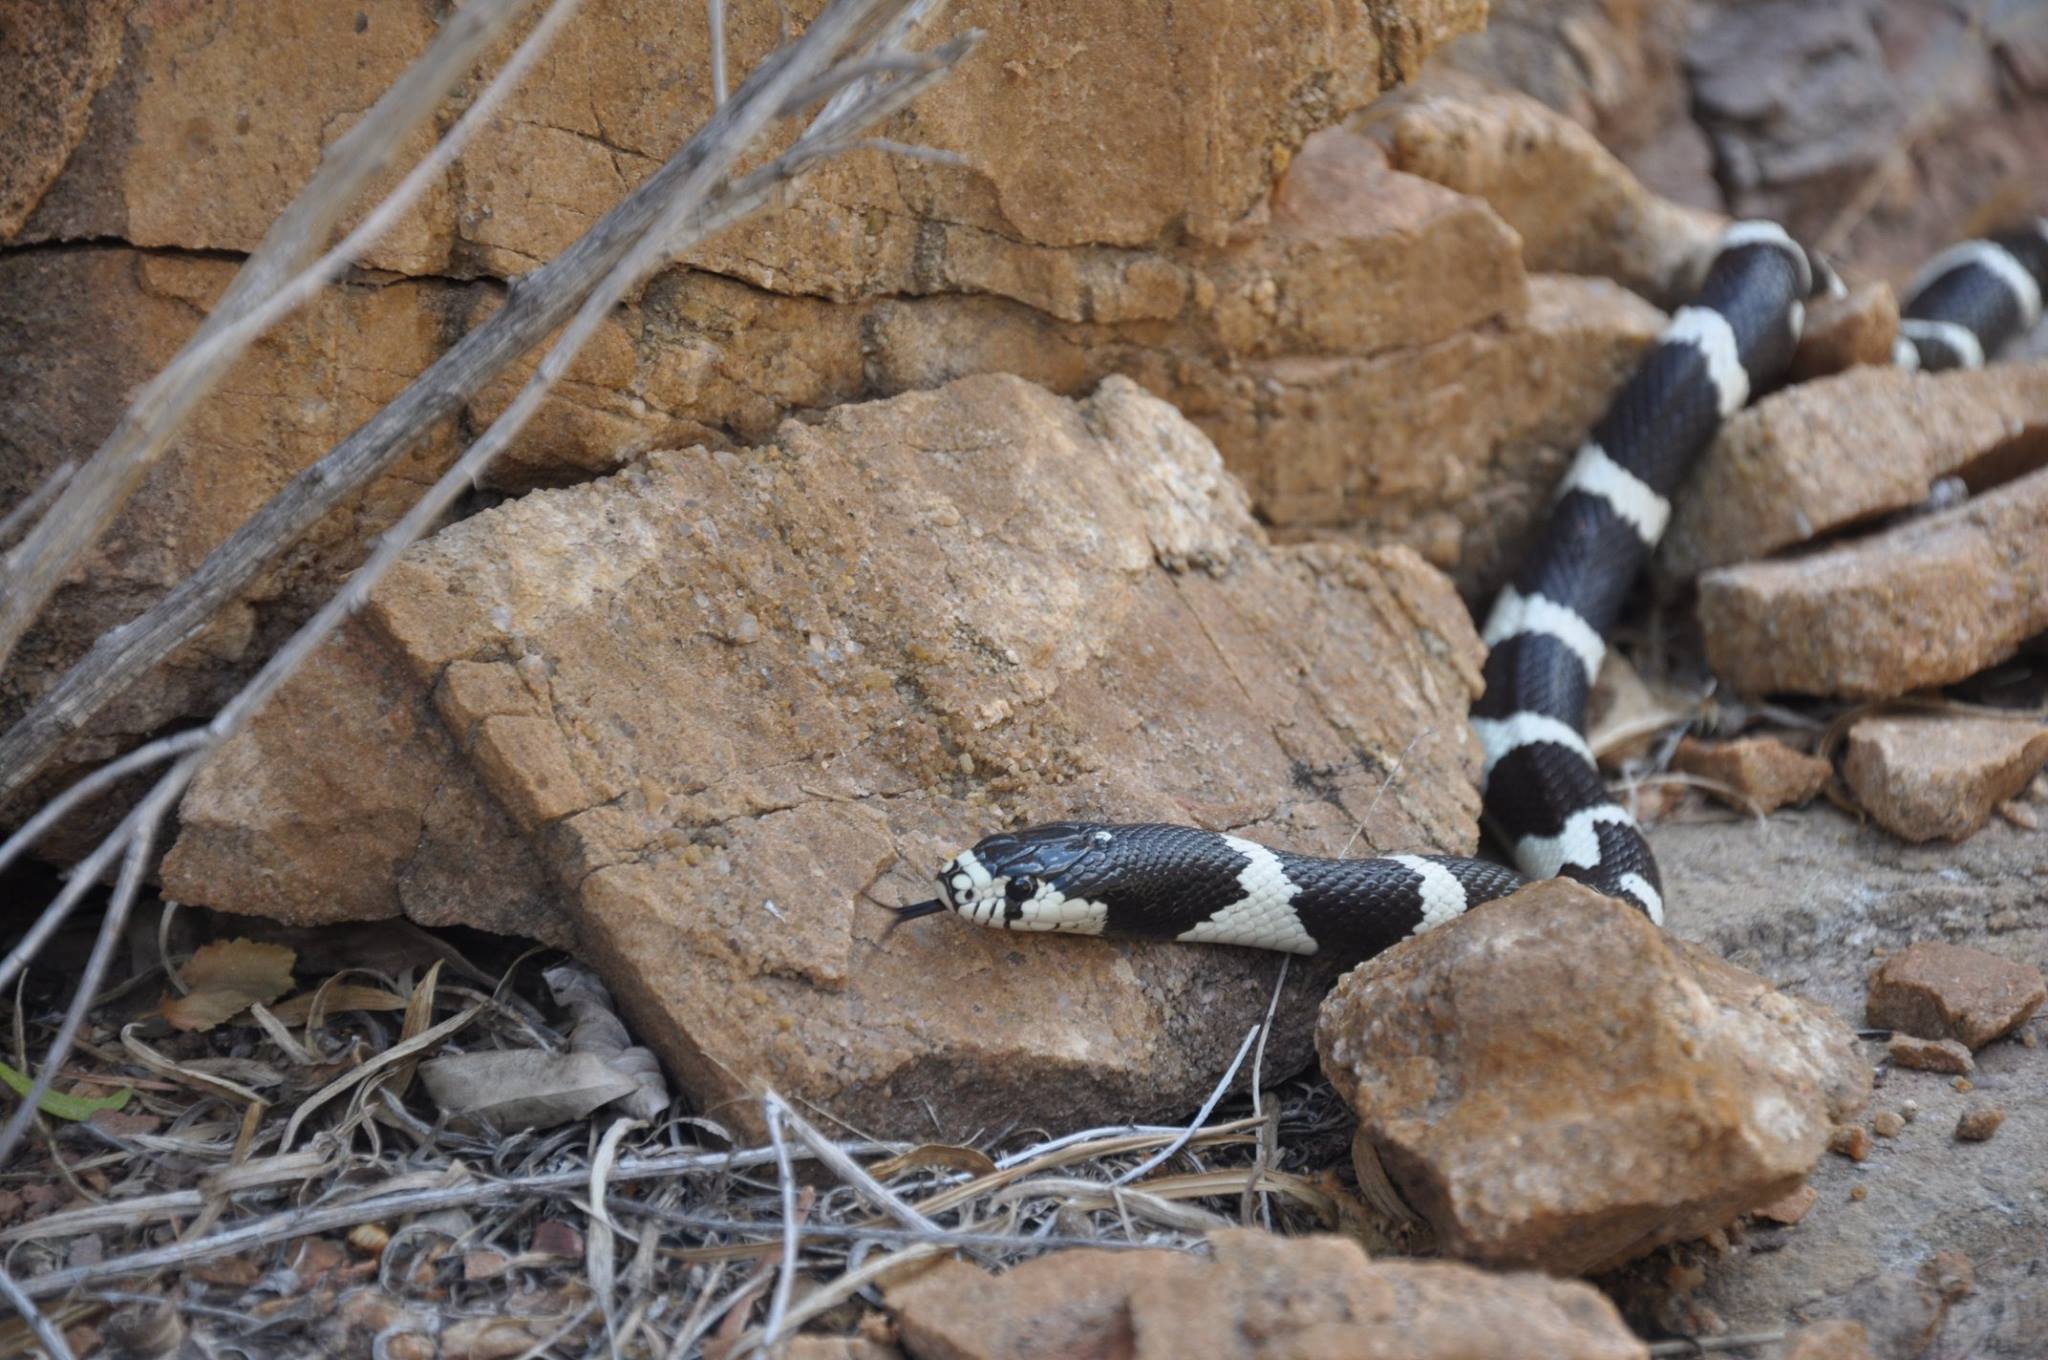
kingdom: Animalia
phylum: Chordata
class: Squamata
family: Colubridae
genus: Lampropeltis
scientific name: Lampropeltis californiae
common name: California kingsnake
